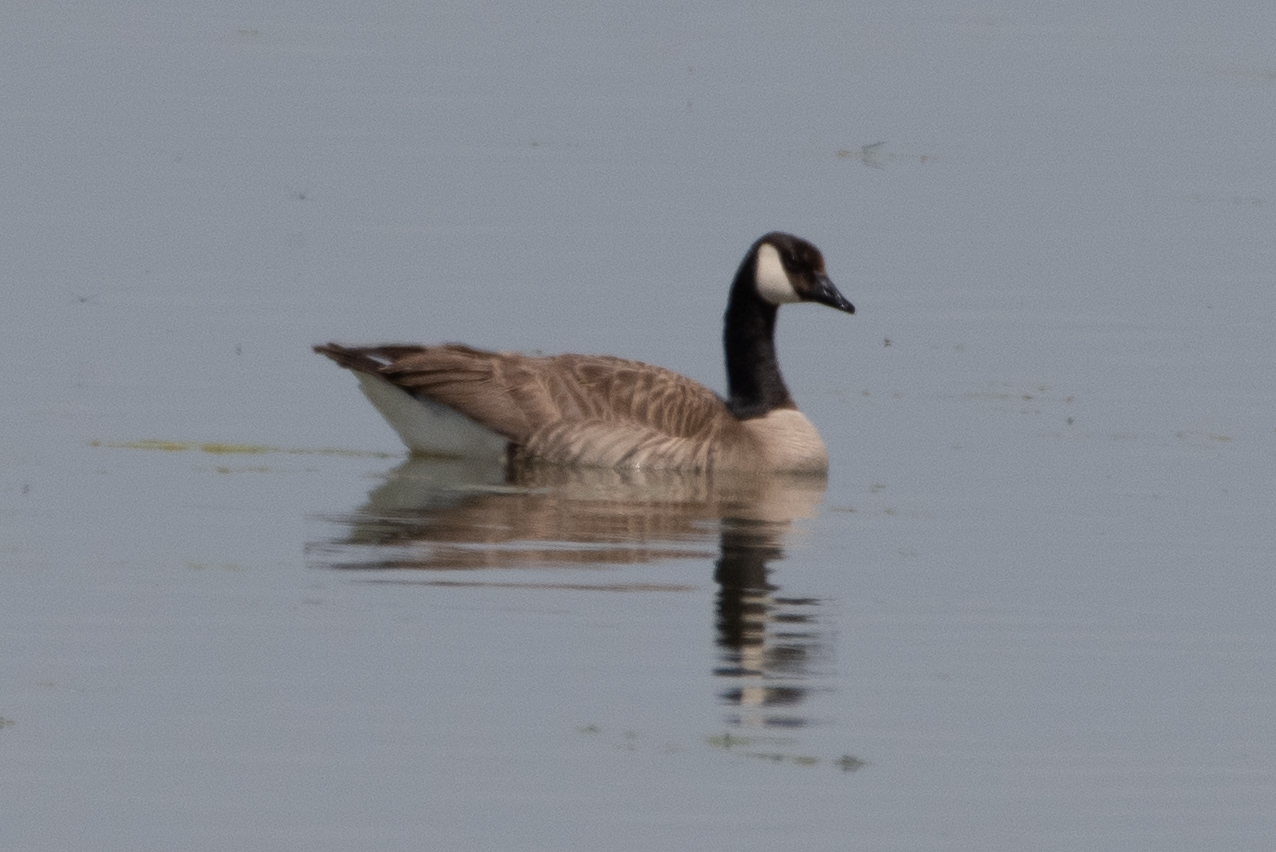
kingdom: Animalia
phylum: Chordata
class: Aves
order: Anseriformes
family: Anatidae
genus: Branta
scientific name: Branta canadensis
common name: Canada goose
